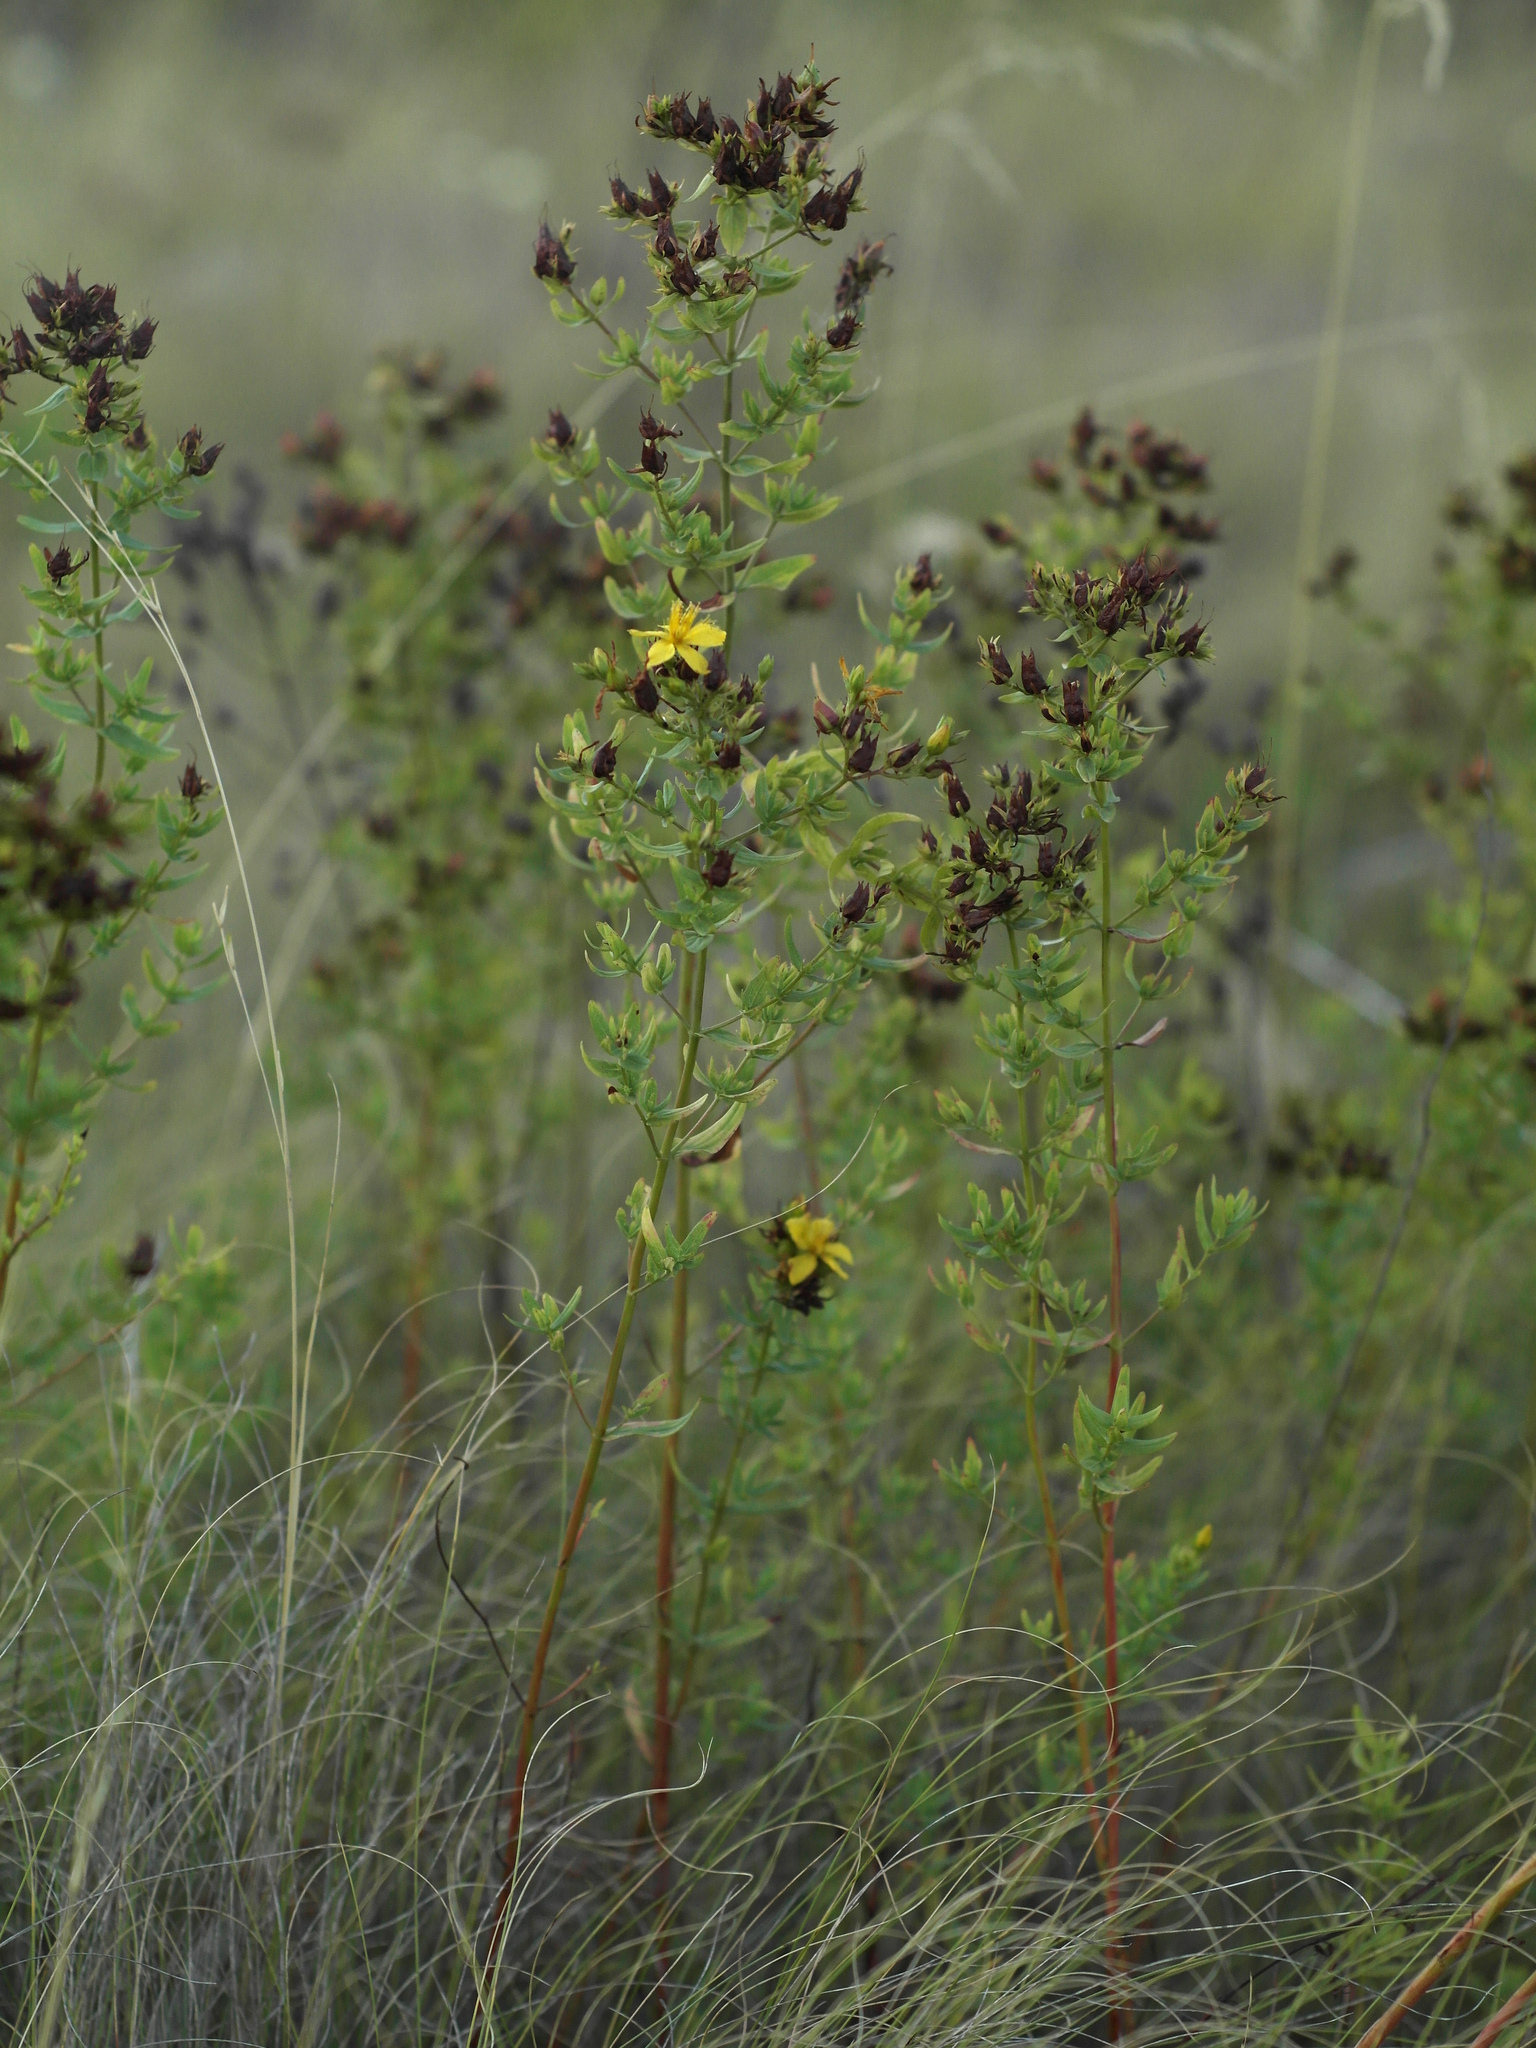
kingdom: Plantae
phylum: Tracheophyta
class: Magnoliopsida
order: Malpighiales
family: Hypericaceae
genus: Hypericum
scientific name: Hypericum perforatum
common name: Common st. johnswort
